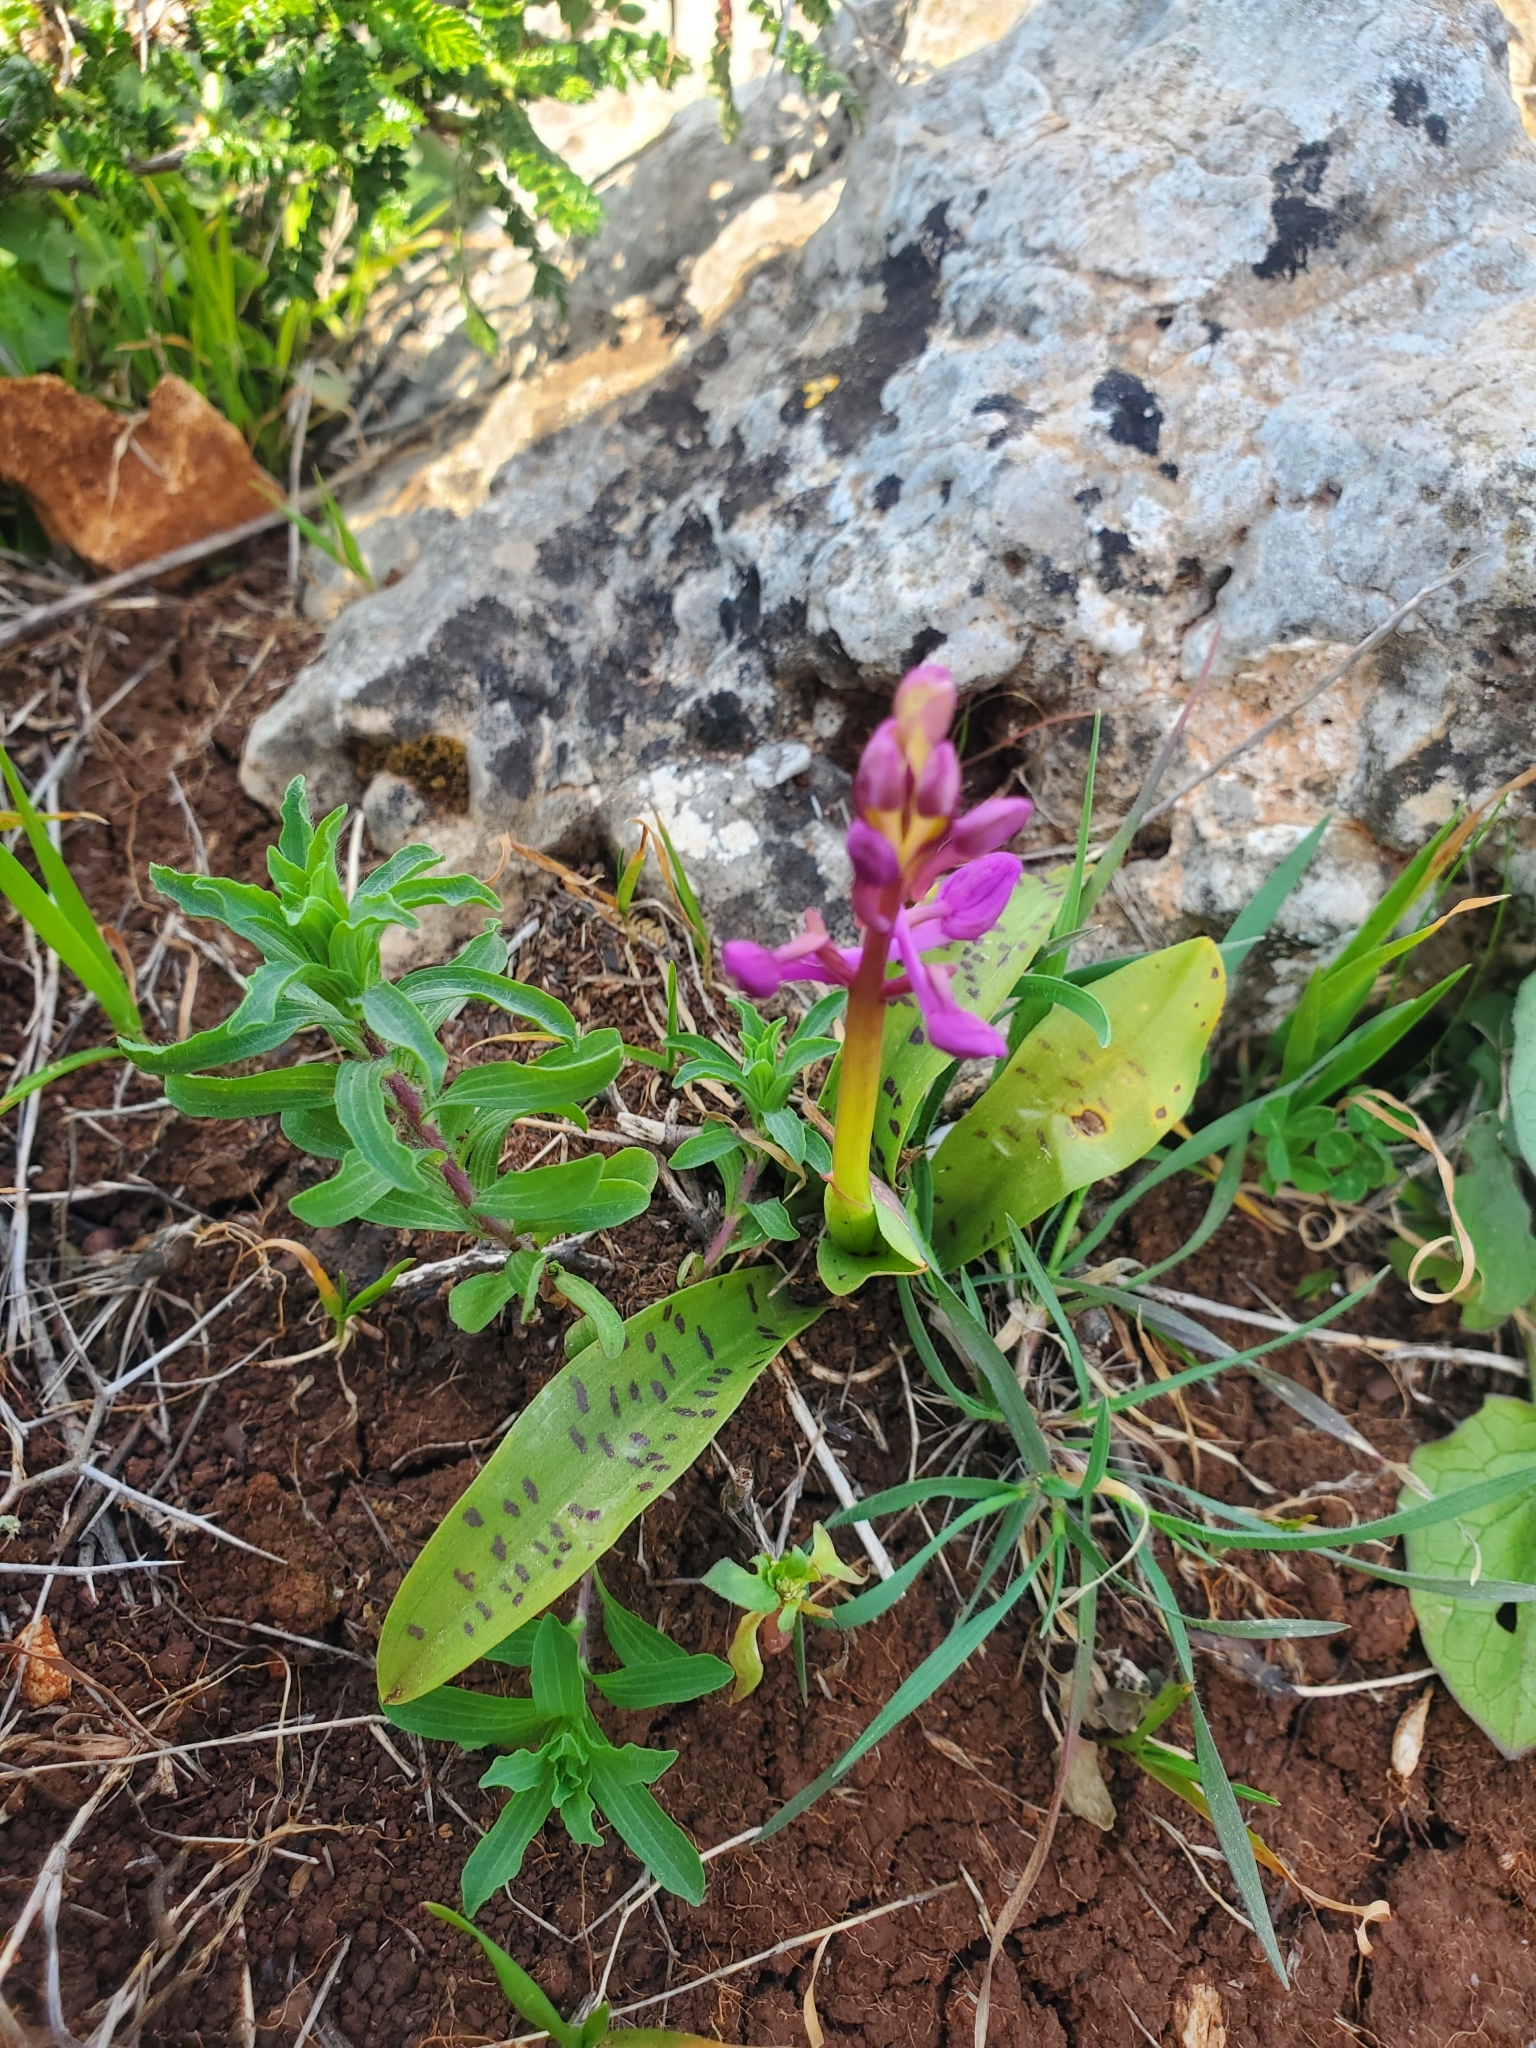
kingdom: Plantae
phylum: Tracheophyta
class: Liliopsida
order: Asparagales
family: Orchidaceae
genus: Orchis
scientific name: Orchis anatolica
